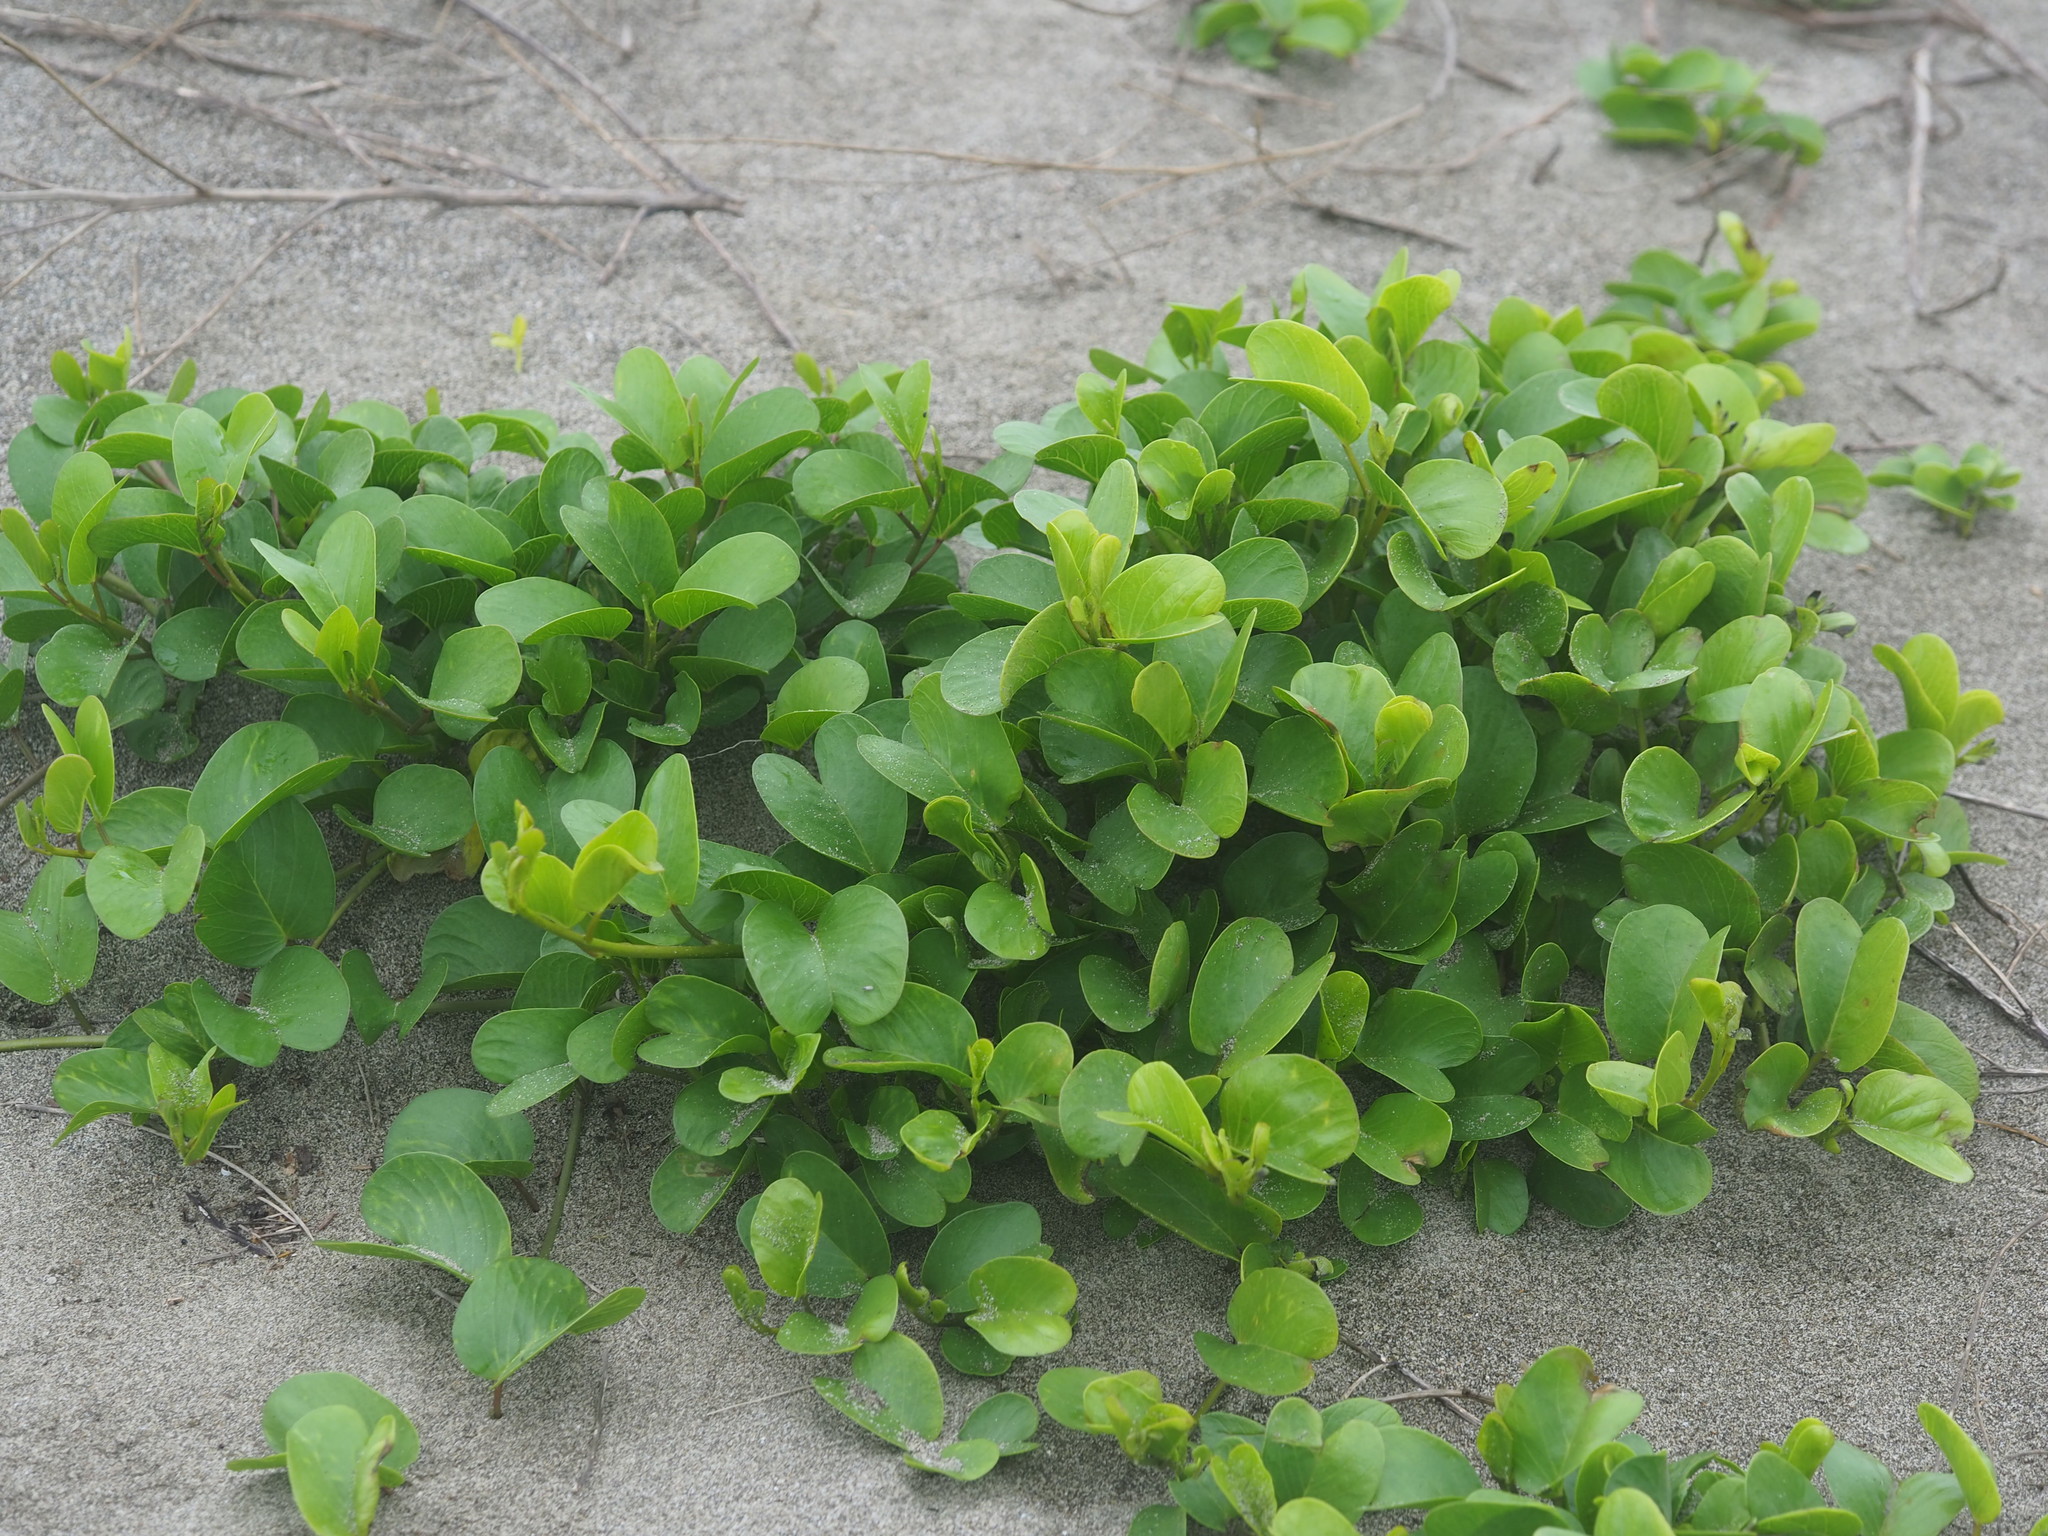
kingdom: Plantae
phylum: Tracheophyta
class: Magnoliopsida
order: Solanales
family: Convolvulaceae
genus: Ipomoea
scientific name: Ipomoea pes-caprae
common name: Beach morning glory
